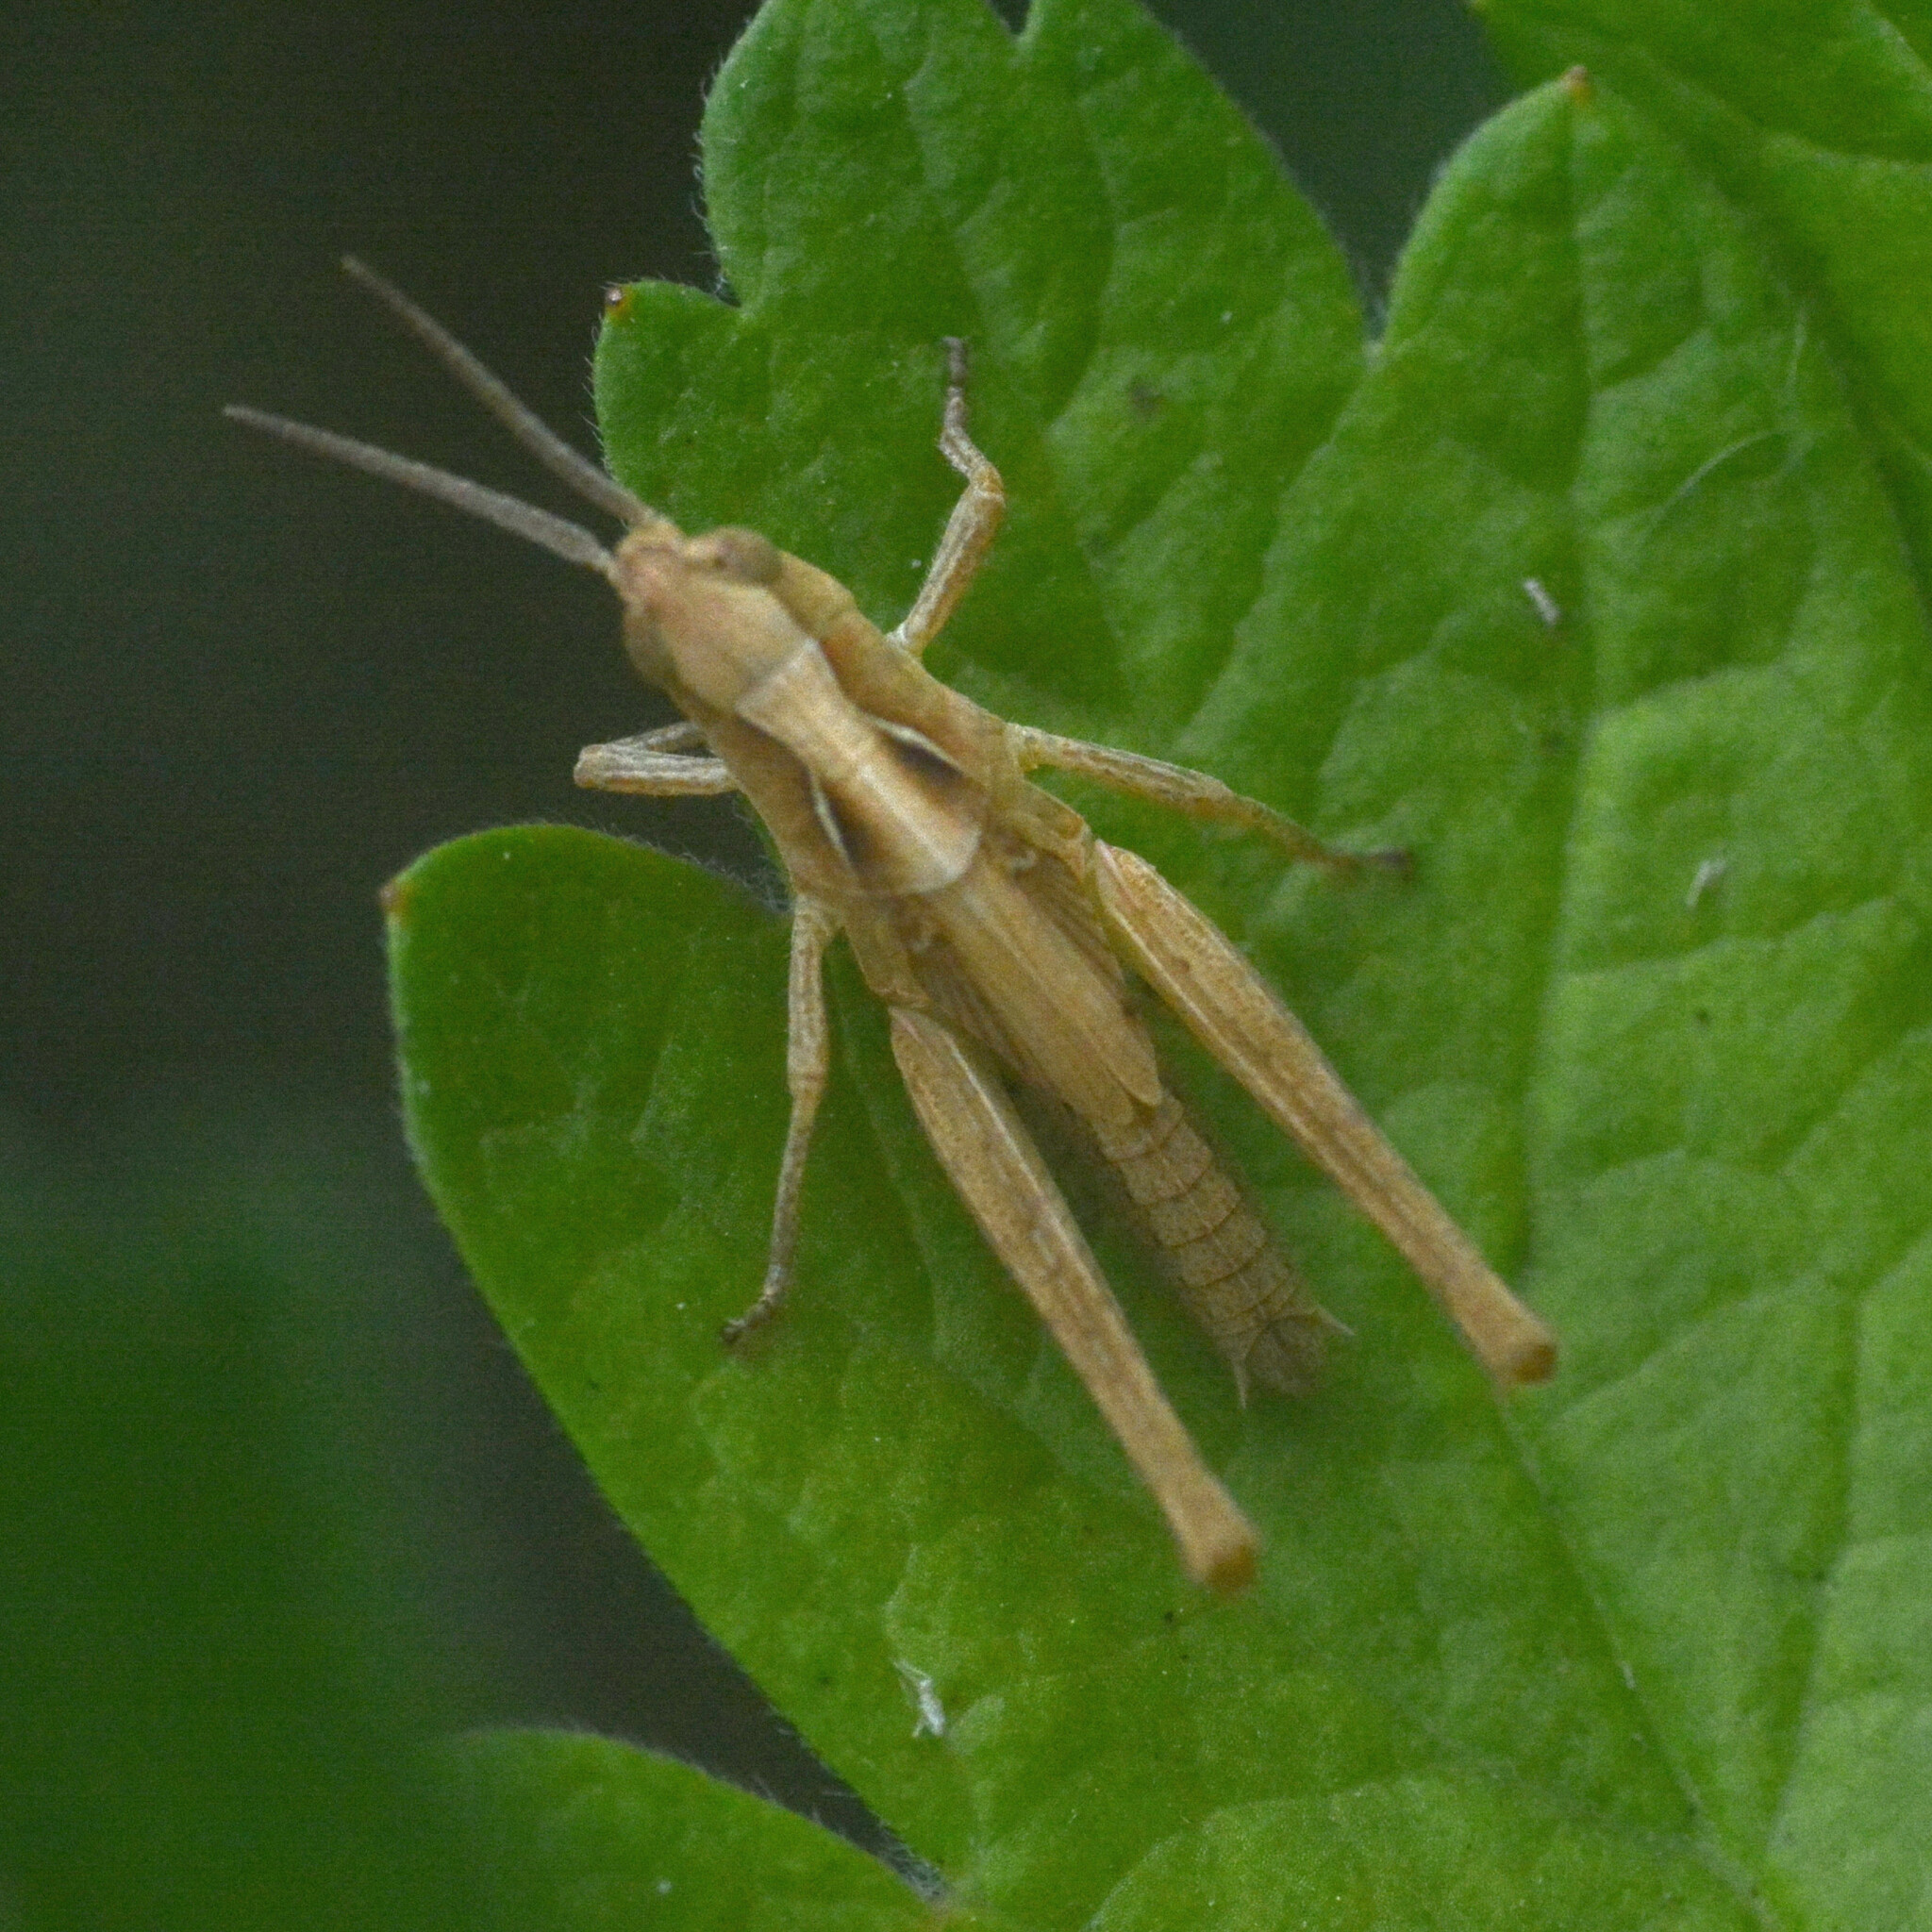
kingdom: Animalia
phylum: Arthropoda
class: Insecta
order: Orthoptera
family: Acrididae
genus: Chorthippus
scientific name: Chorthippus brunneus
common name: Field grasshopper
